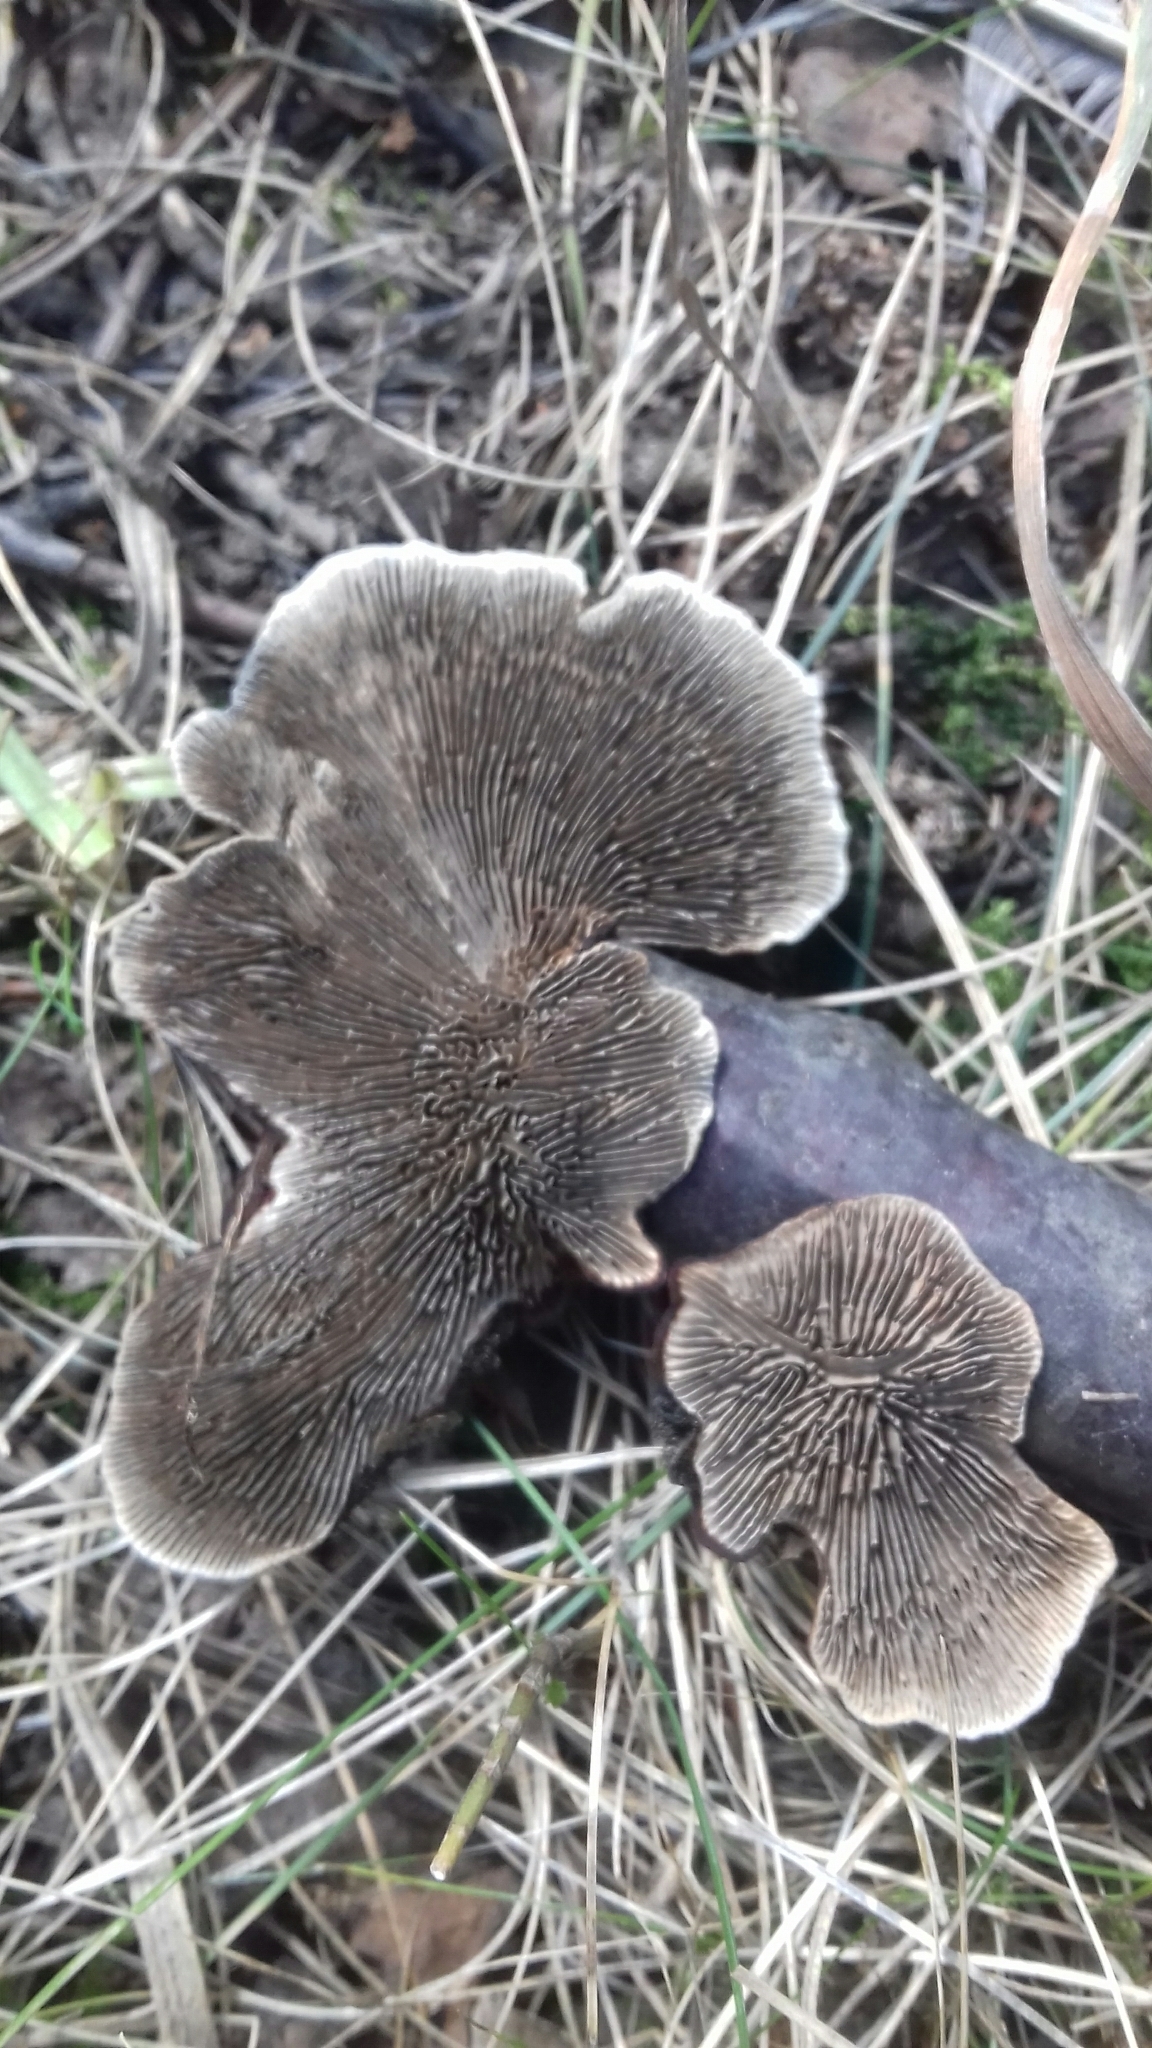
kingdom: Fungi
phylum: Basidiomycota
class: Agaricomycetes
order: Polyporales
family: Polyporaceae
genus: Daedaleopsis
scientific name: Daedaleopsis tricolor
